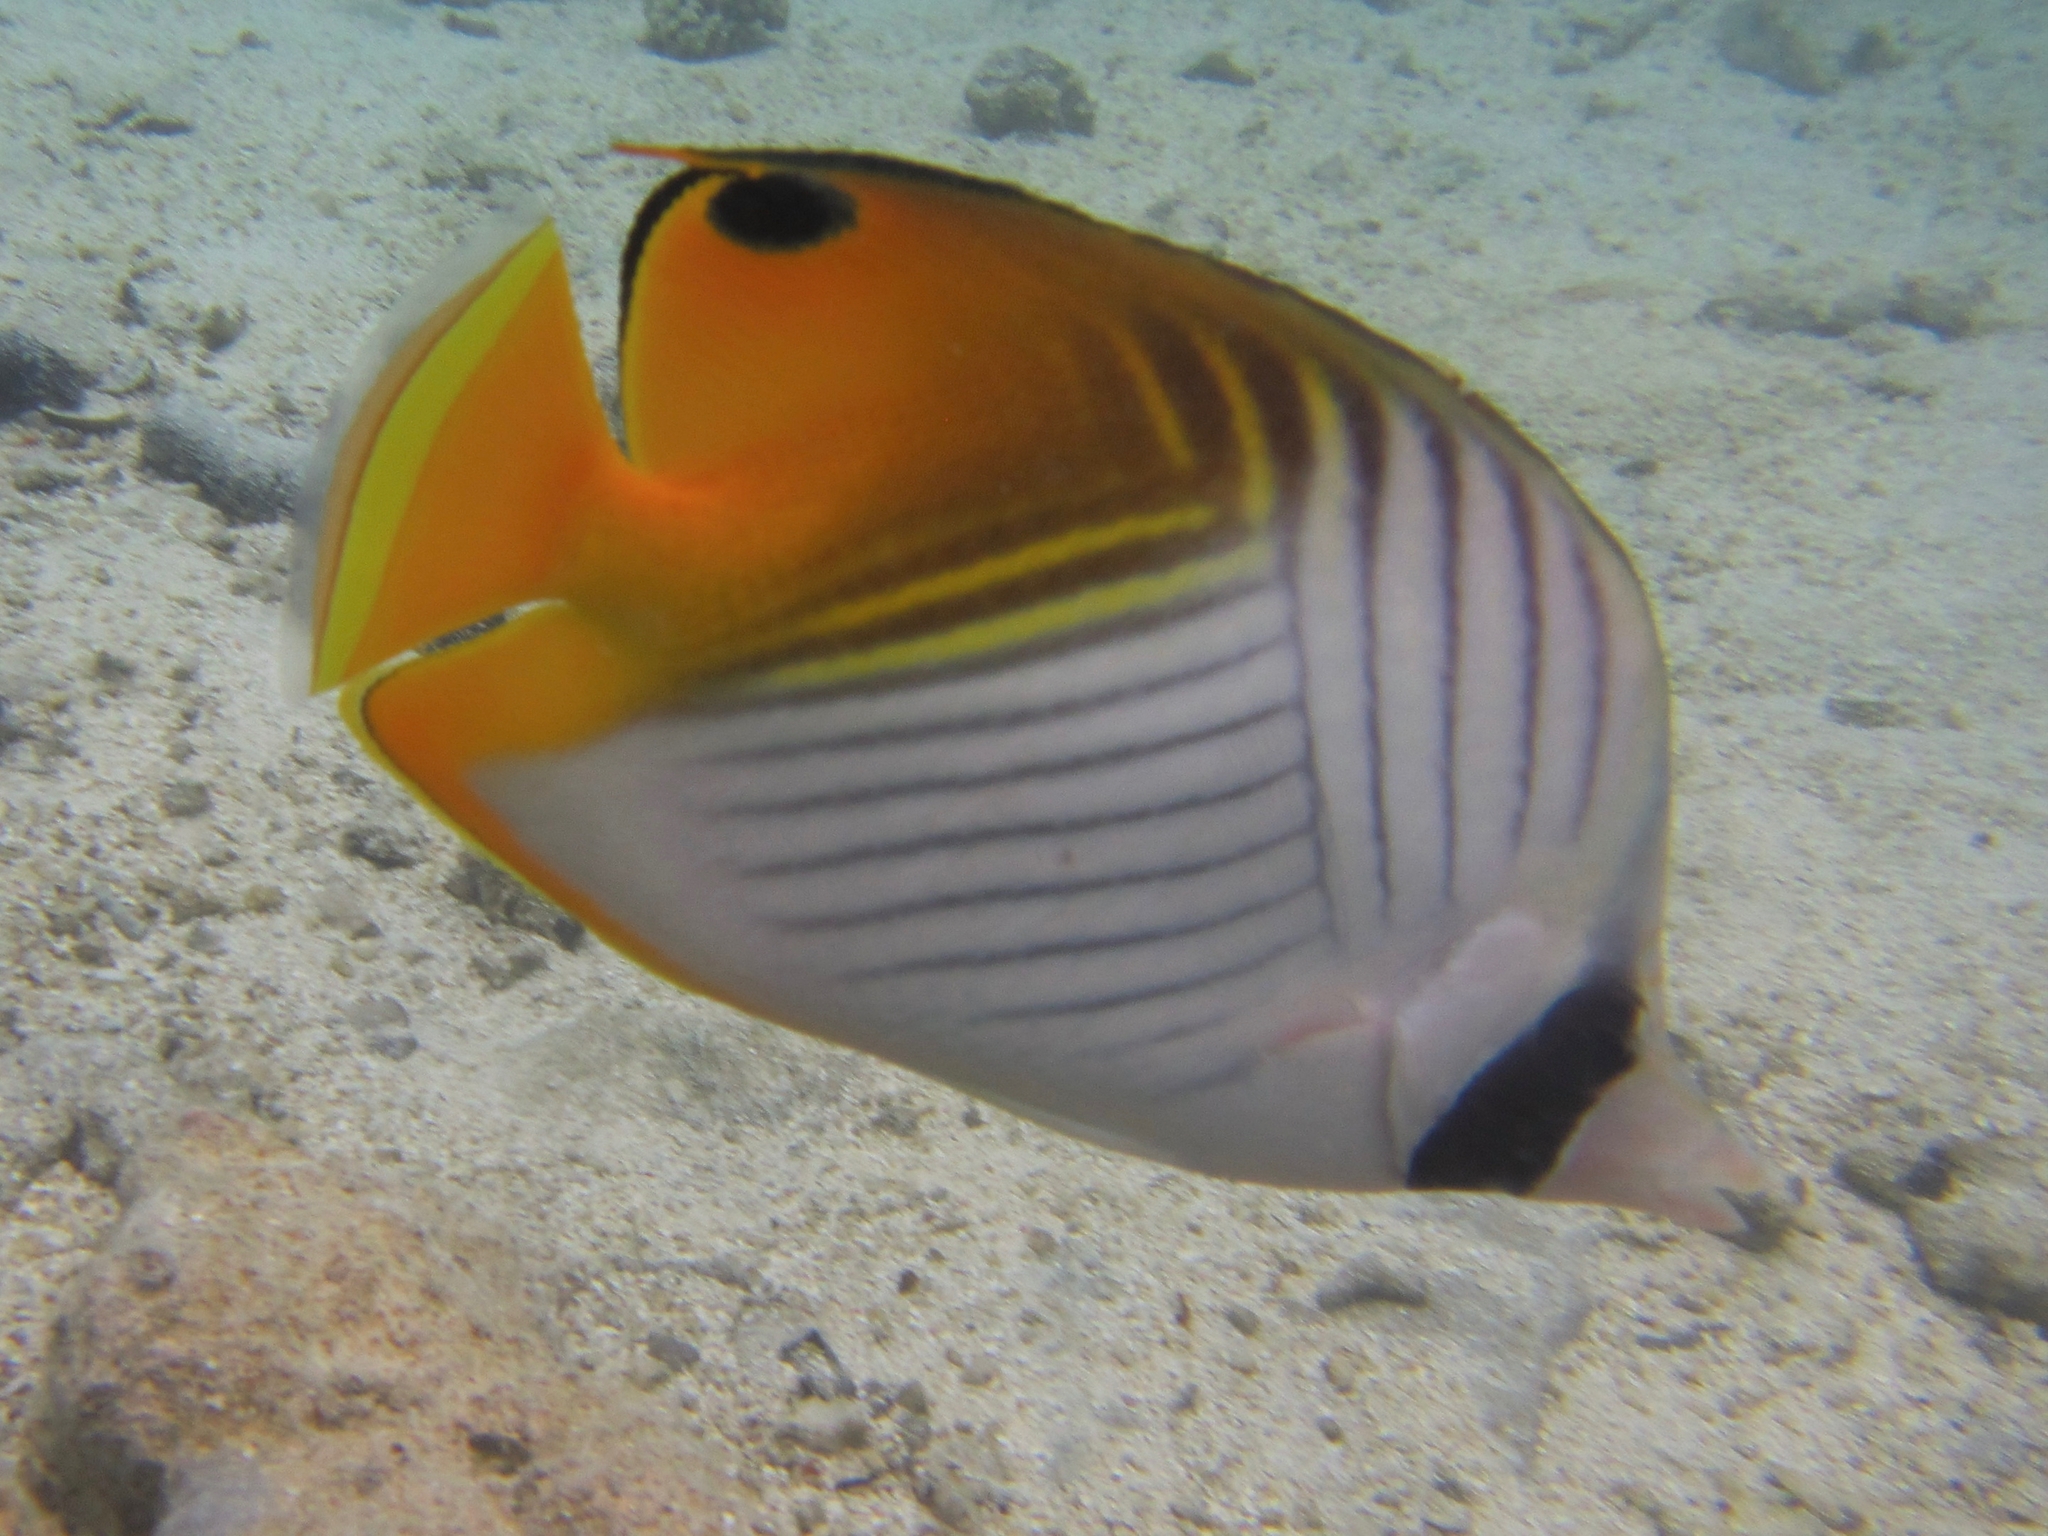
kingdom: Animalia
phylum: Chordata
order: Perciformes
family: Chaetodontidae
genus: Chaetodon
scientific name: Chaetodon auriga
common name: Threadfin butterflyfish
